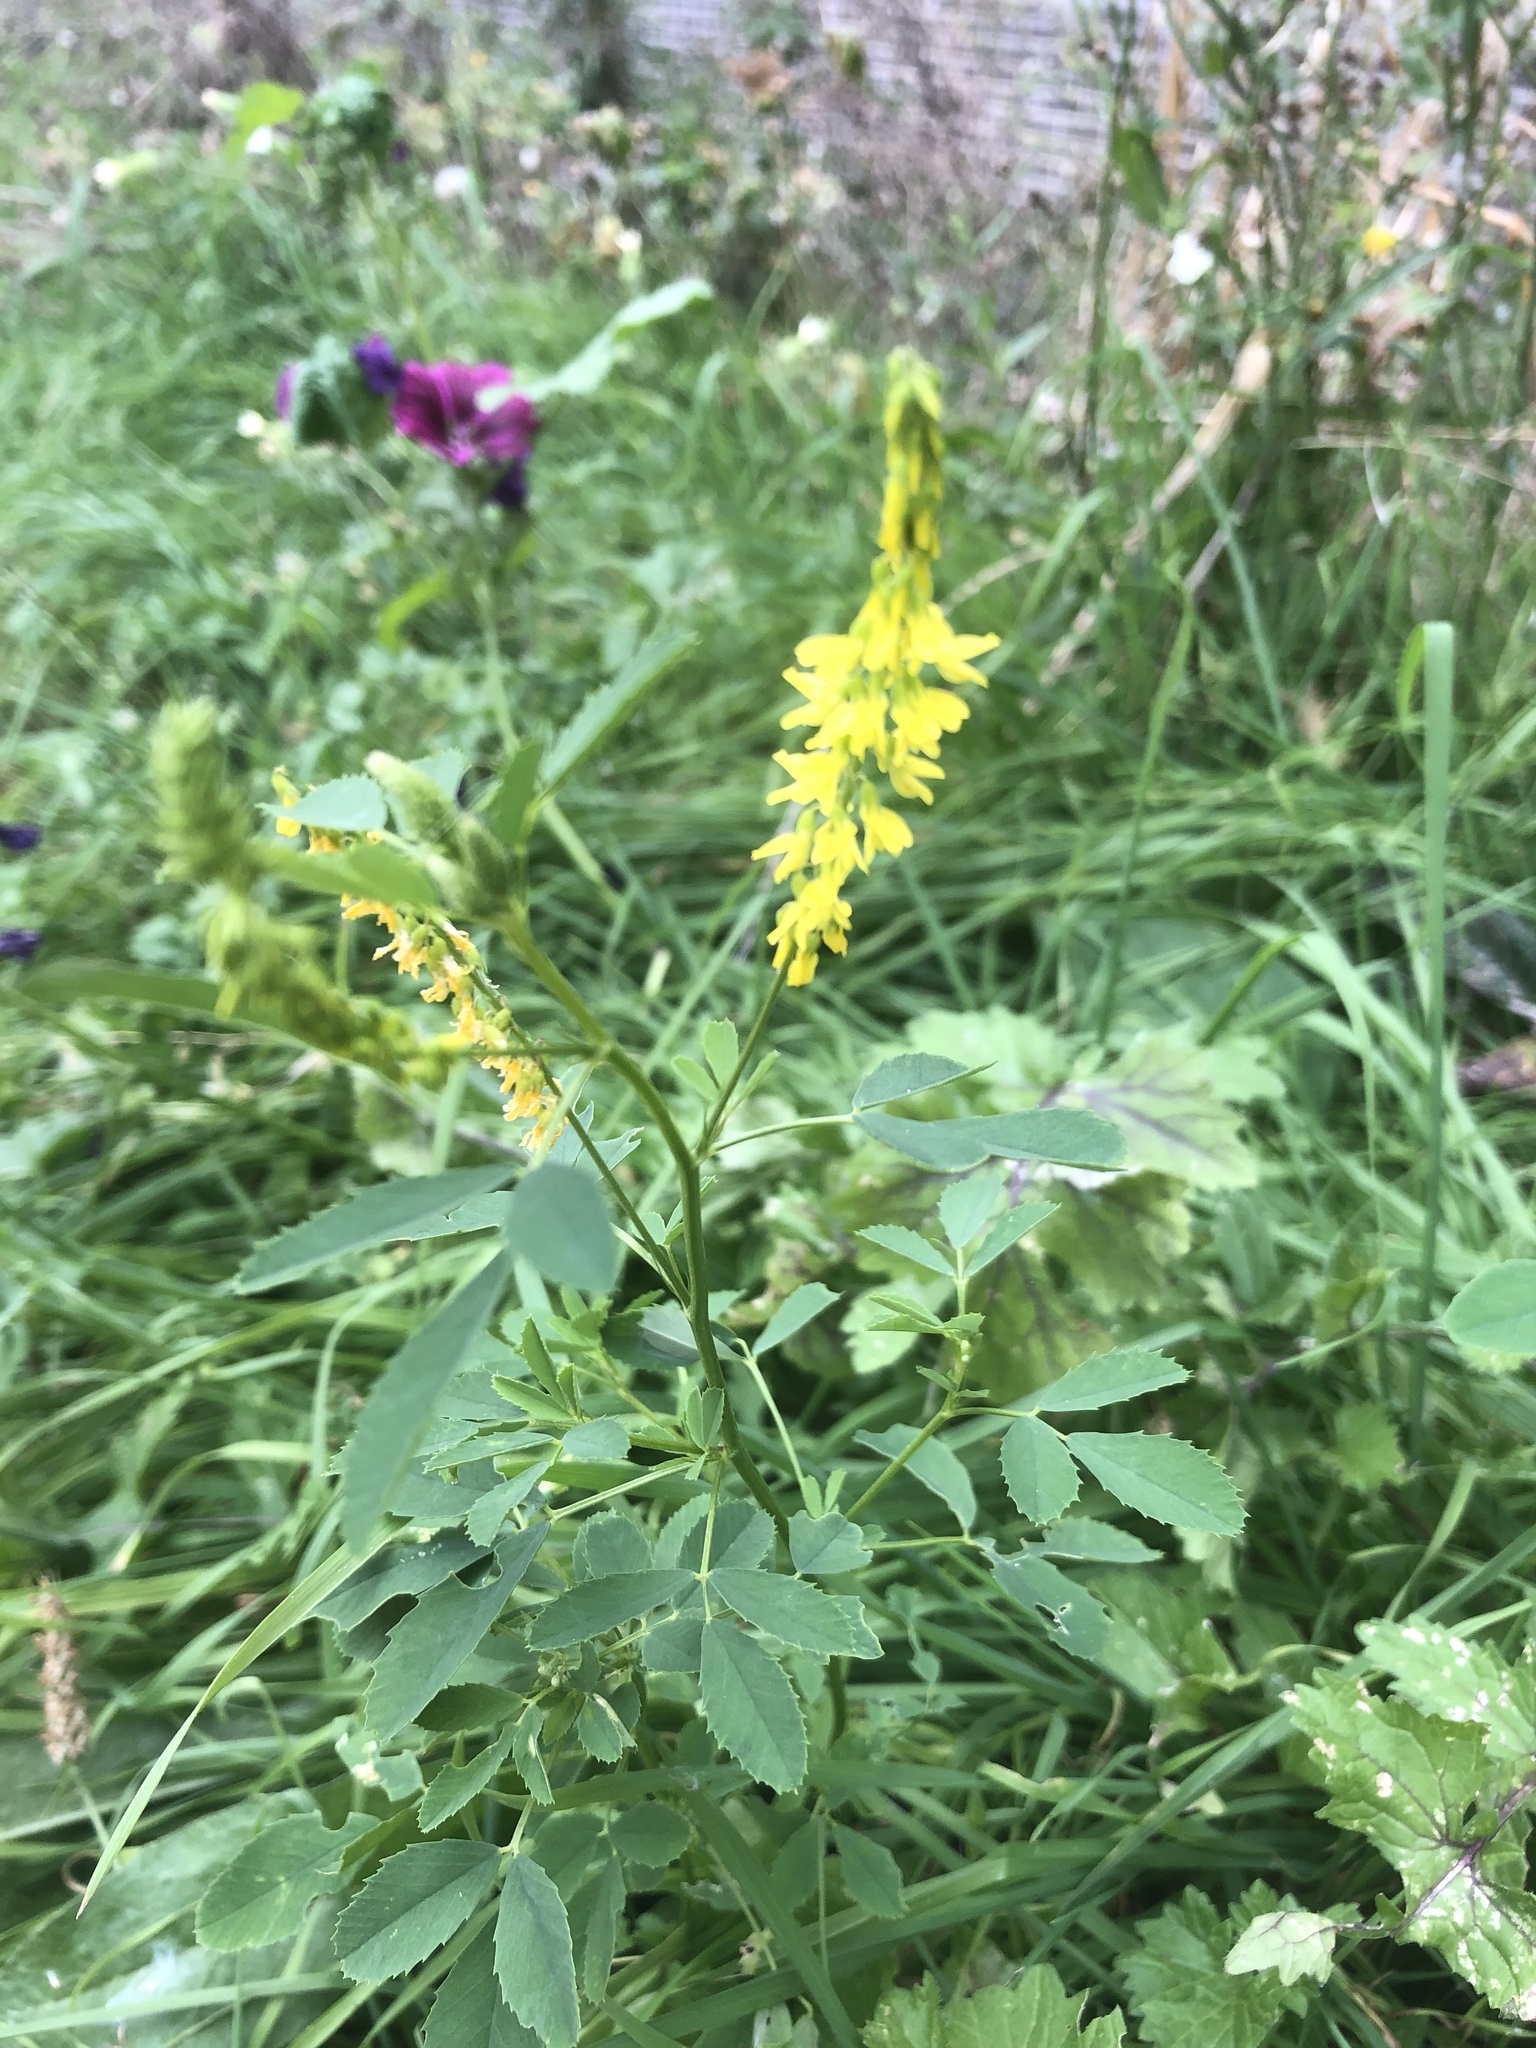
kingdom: Plantae
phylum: Tracheophyta
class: Magnoliopsida
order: Fabales
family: Fabaceae
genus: Melilotus
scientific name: Melilotus officinalis
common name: Sweetclover
